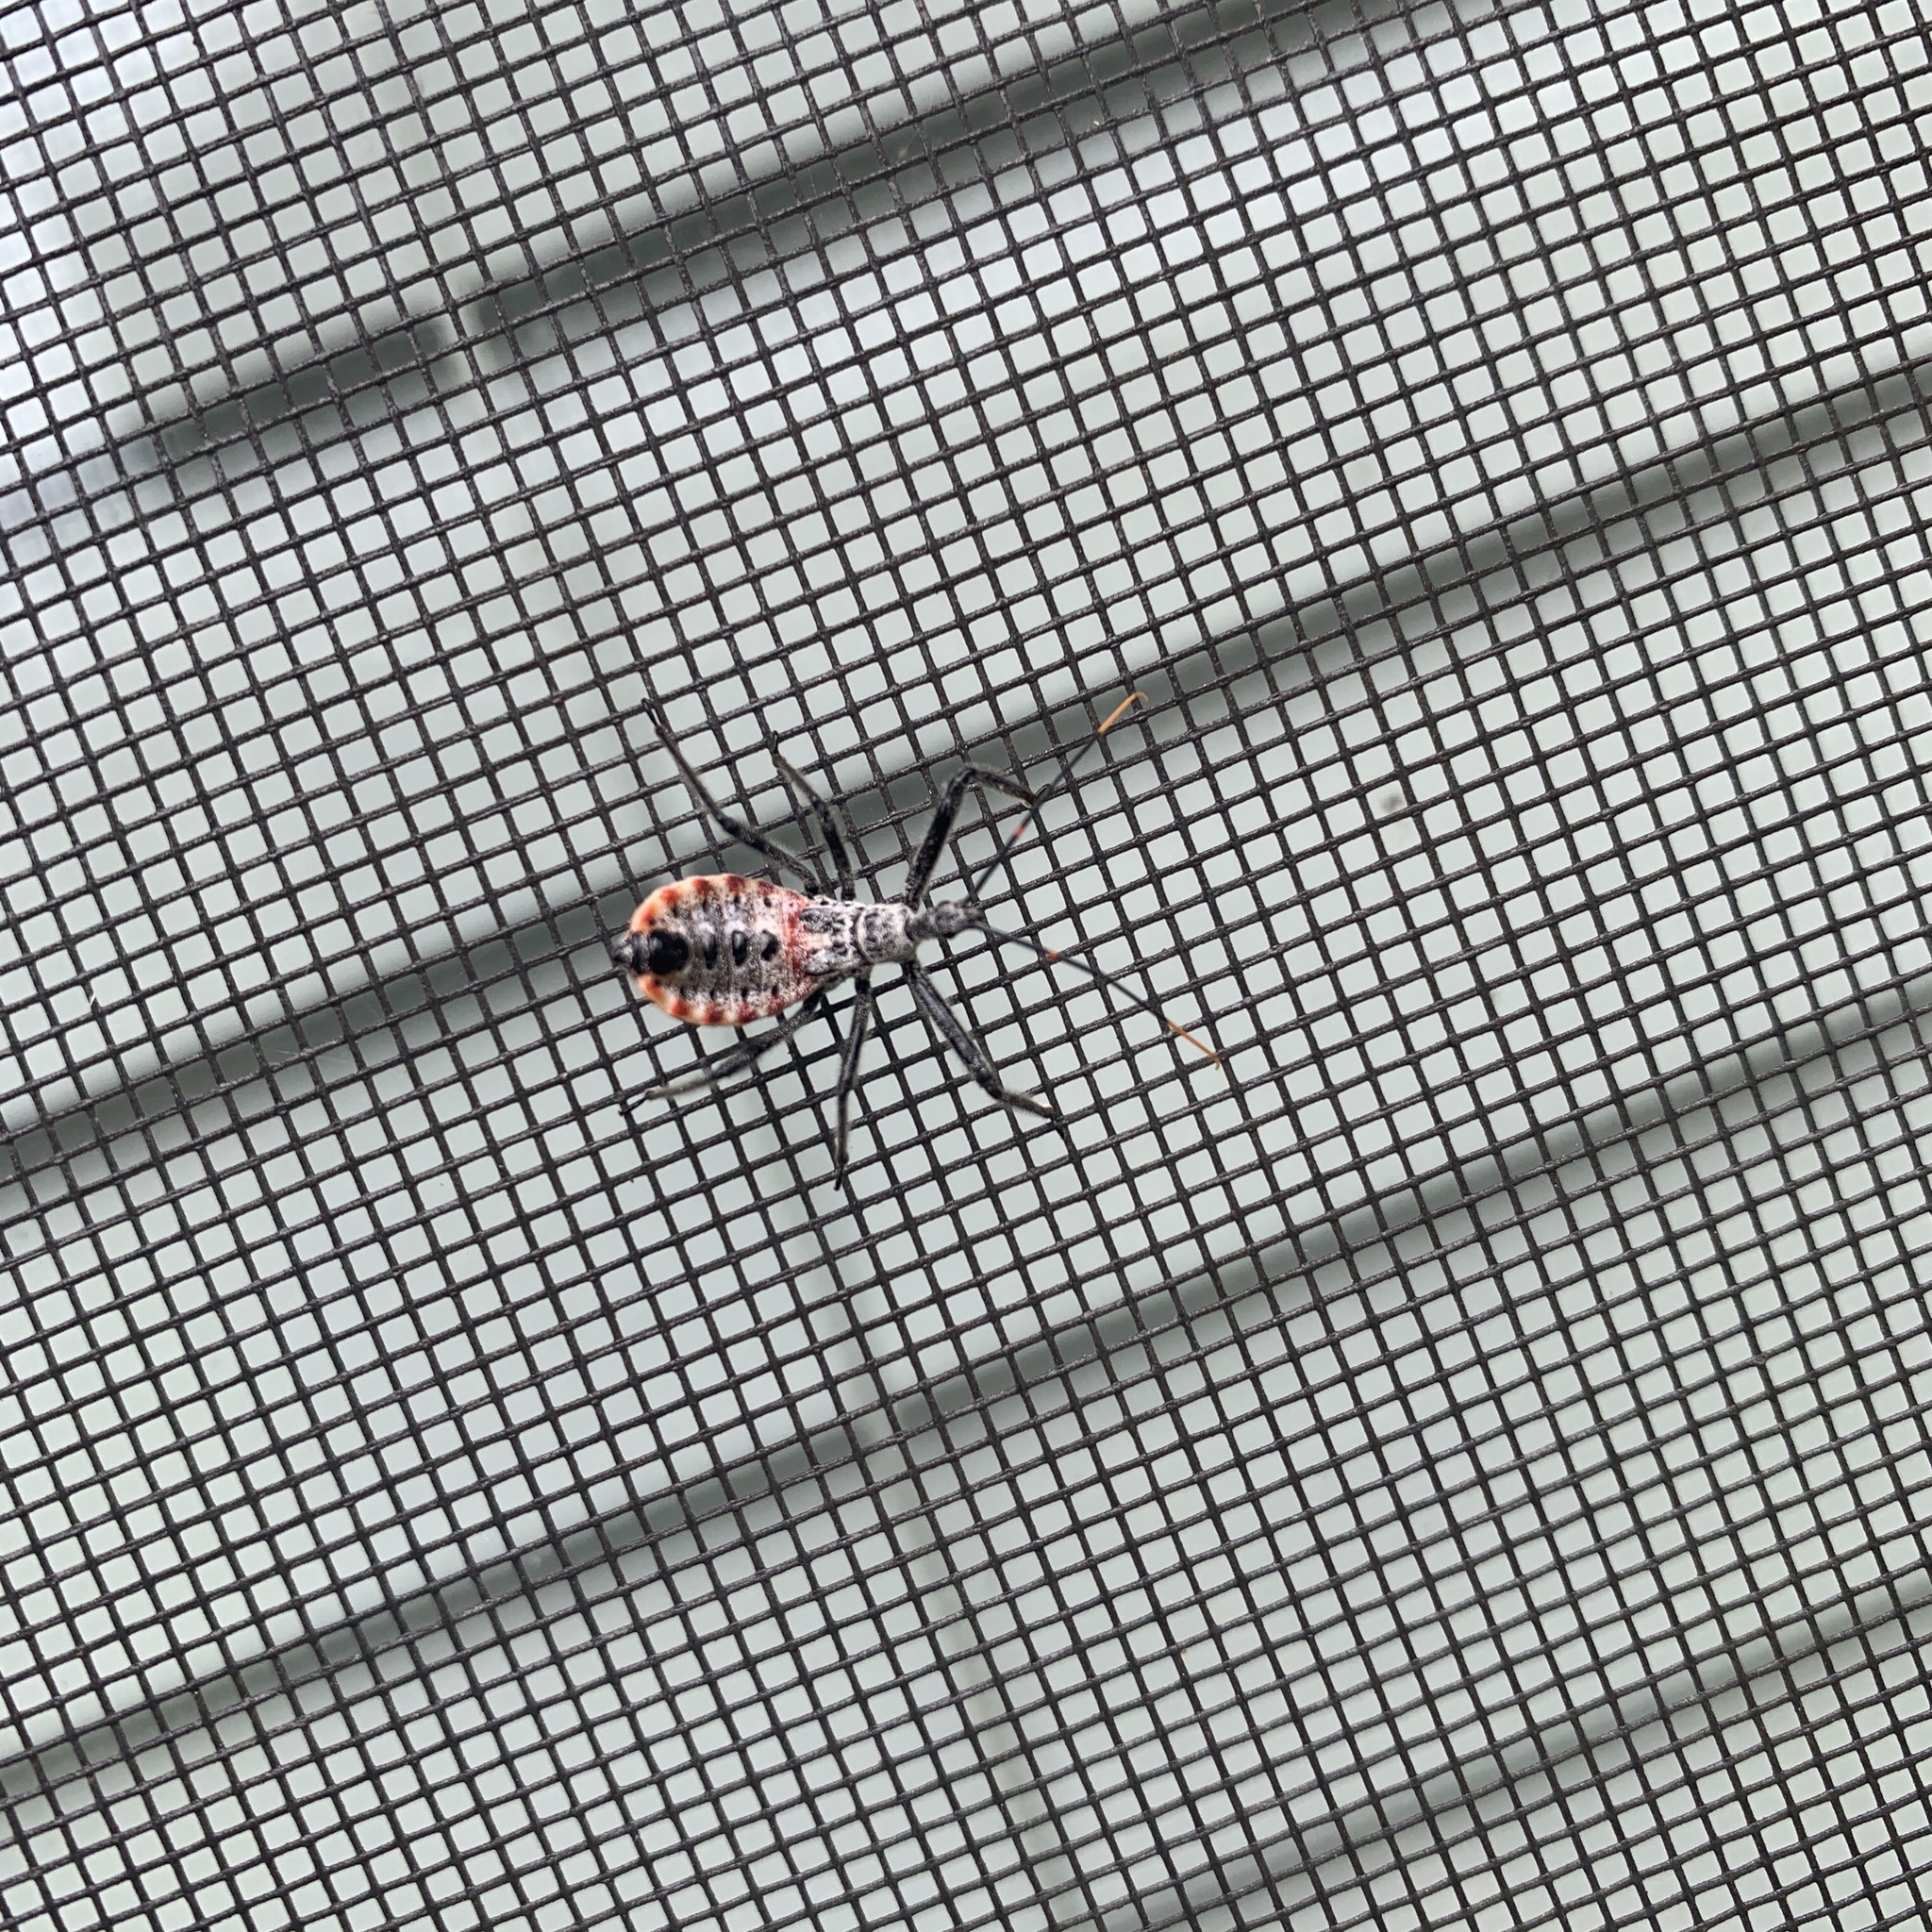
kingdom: Animalia
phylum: Arthropoda
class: Insecta
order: Hemiptera
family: Reduviidae
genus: Arilus
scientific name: Arilus cristatus
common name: North american wheel bug
